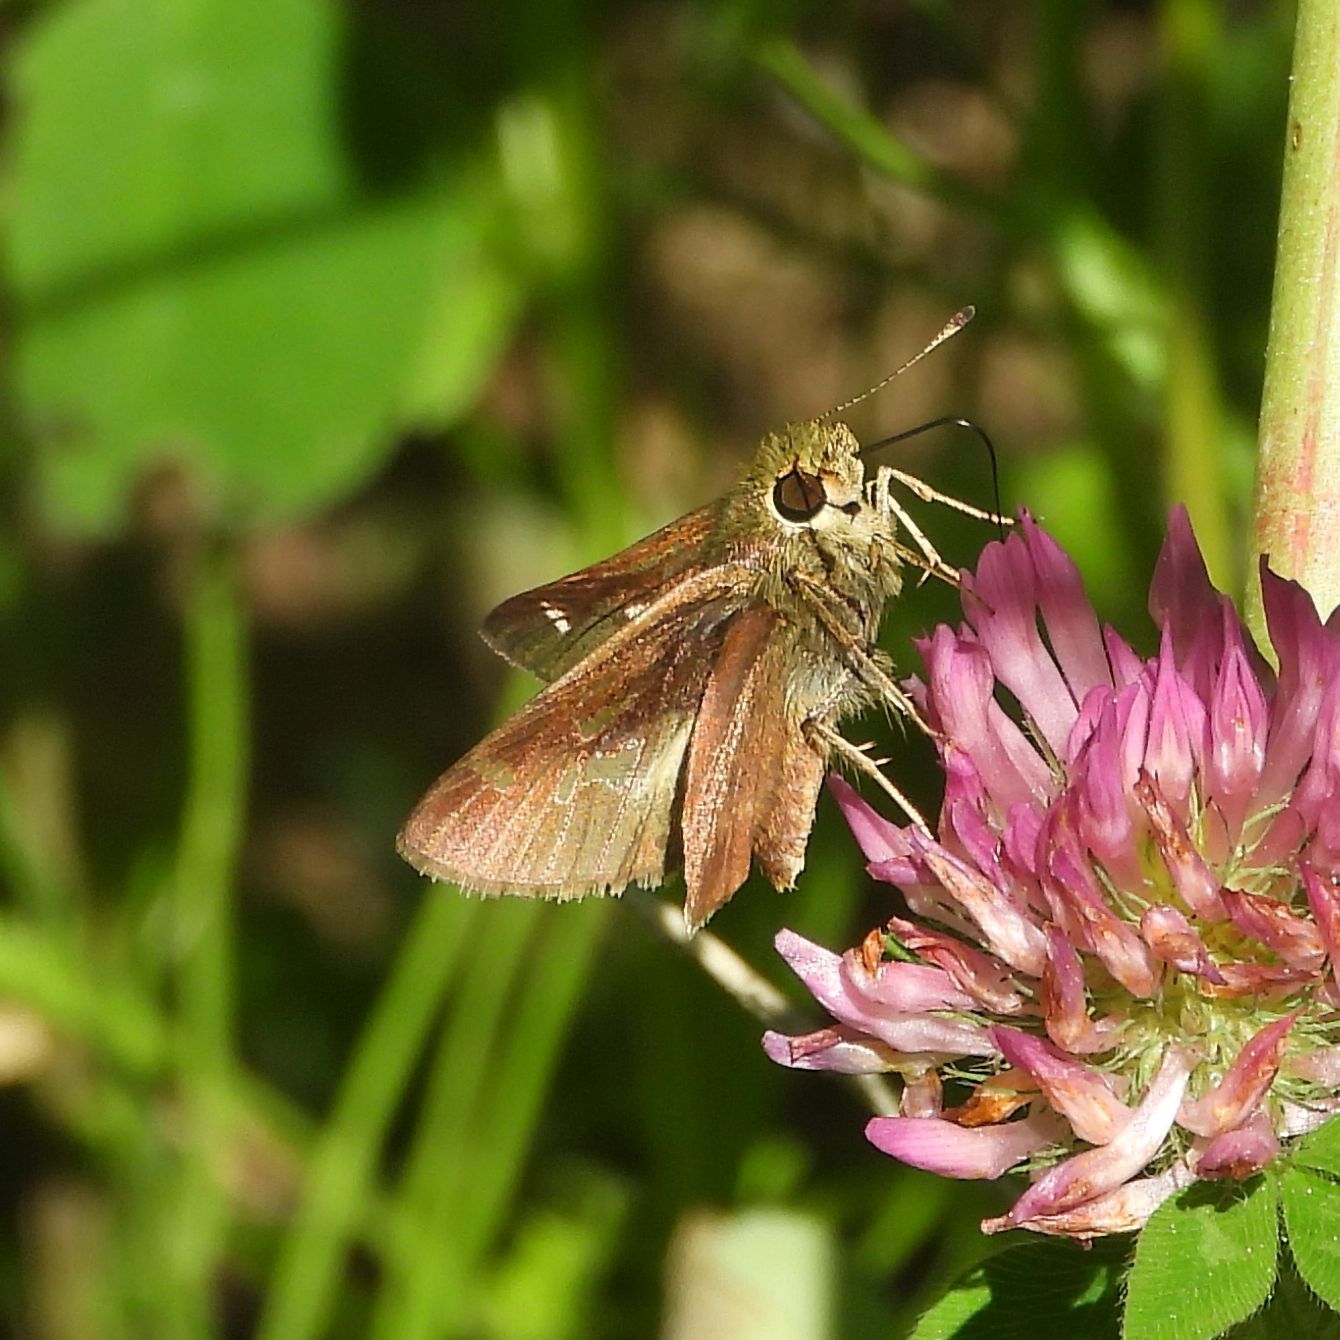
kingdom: Animalia
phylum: Arthropoda
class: Insecta
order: Lepidoptera
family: Hesperiidae
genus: Vernia
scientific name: Vernia verna
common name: Little glassywing
